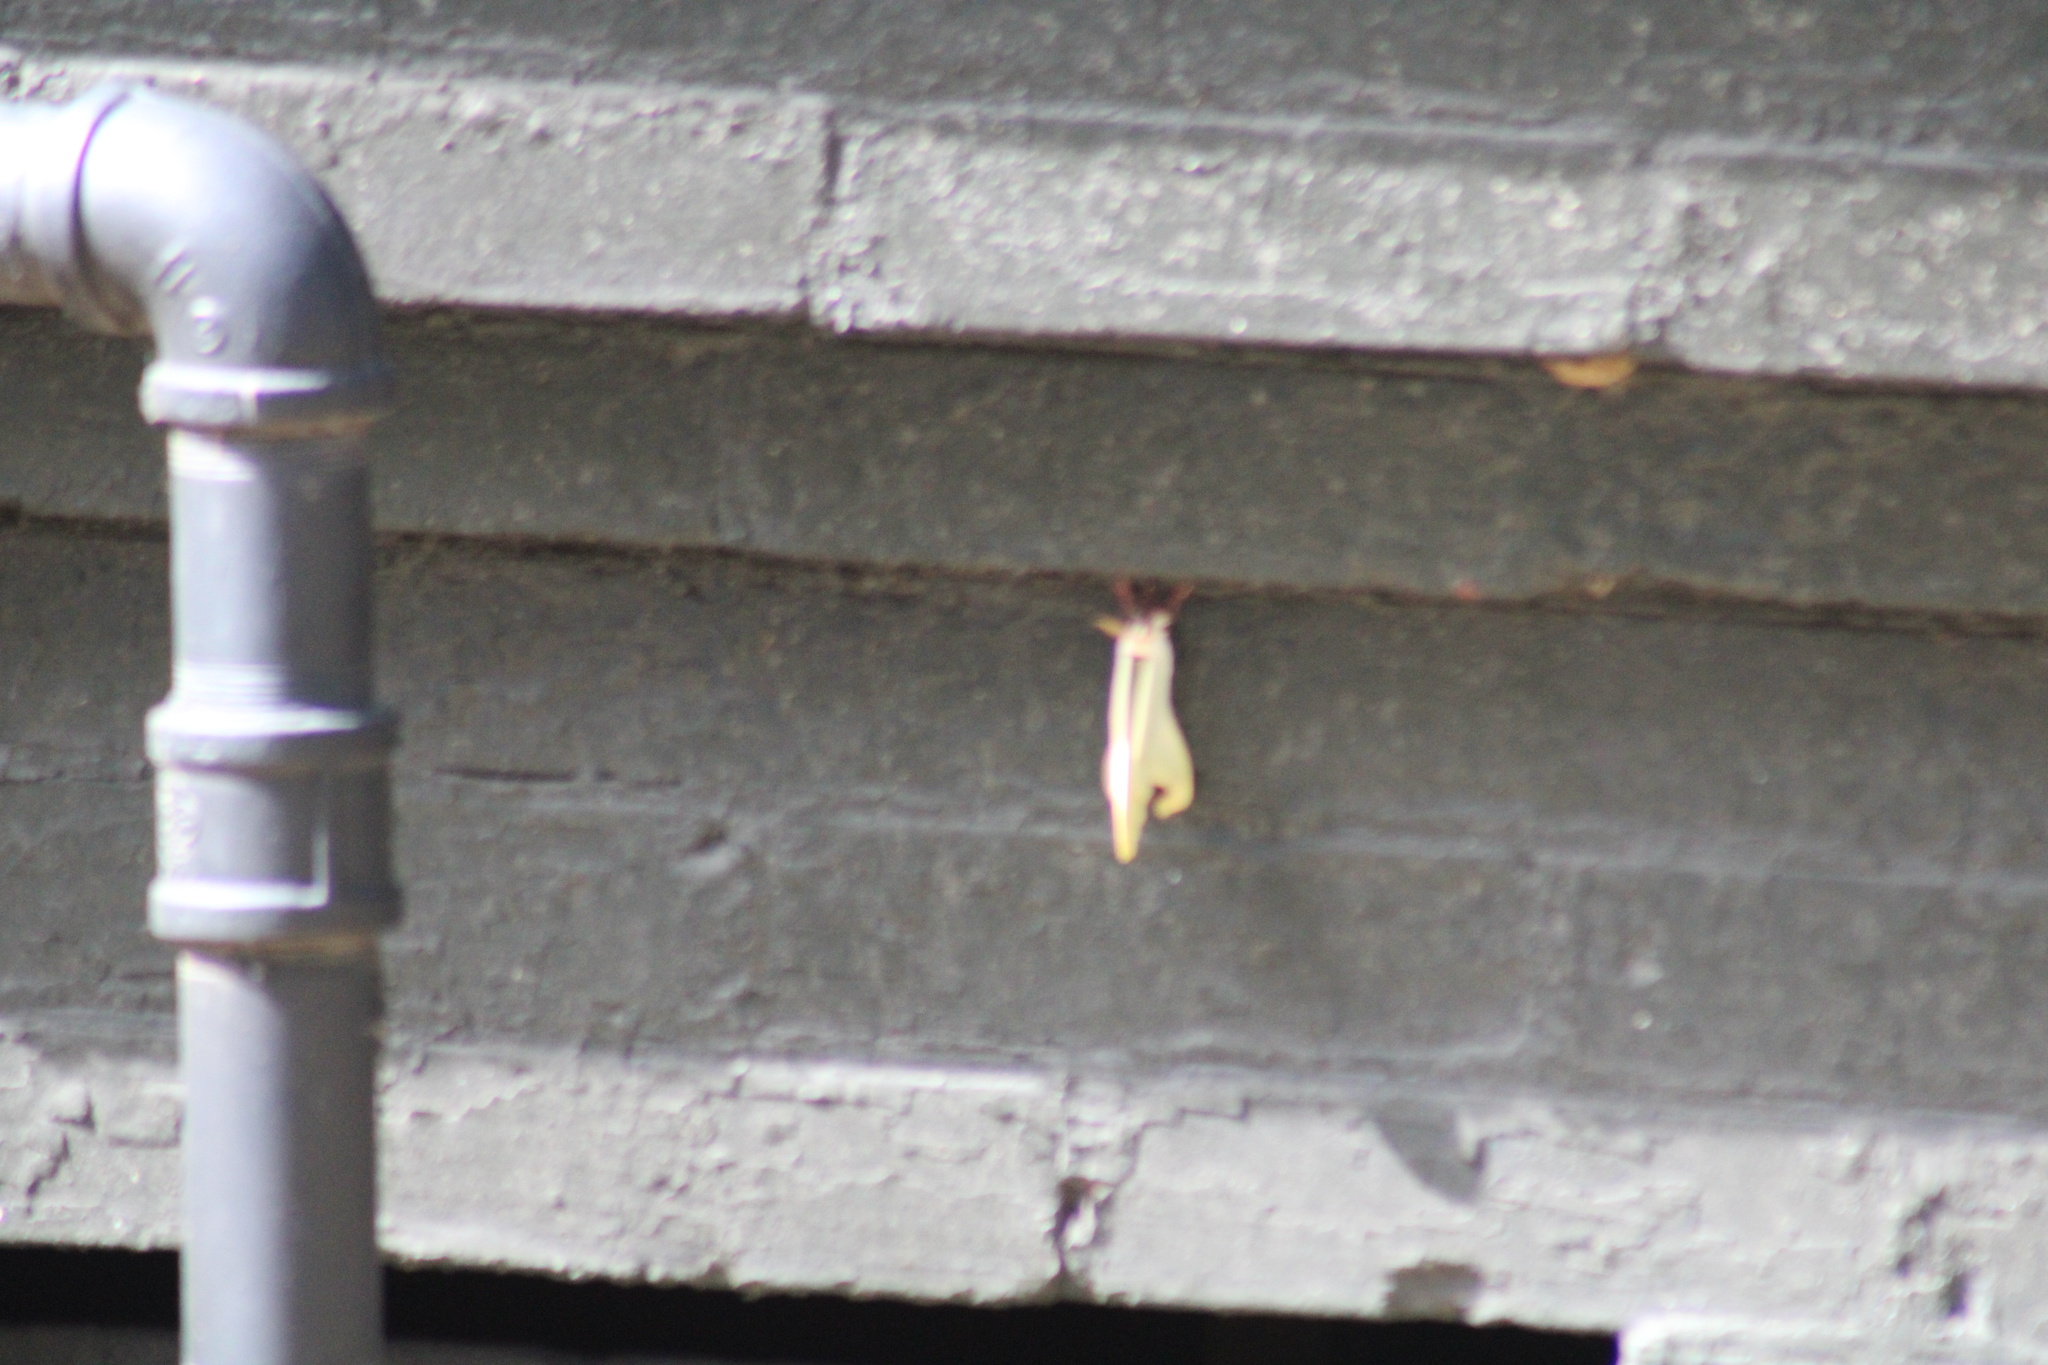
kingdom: Animalia
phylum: Arthropoda
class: Insecta
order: Lepidoptera
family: Saturniidae
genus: Actias
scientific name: Actias luna
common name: Luna moth
